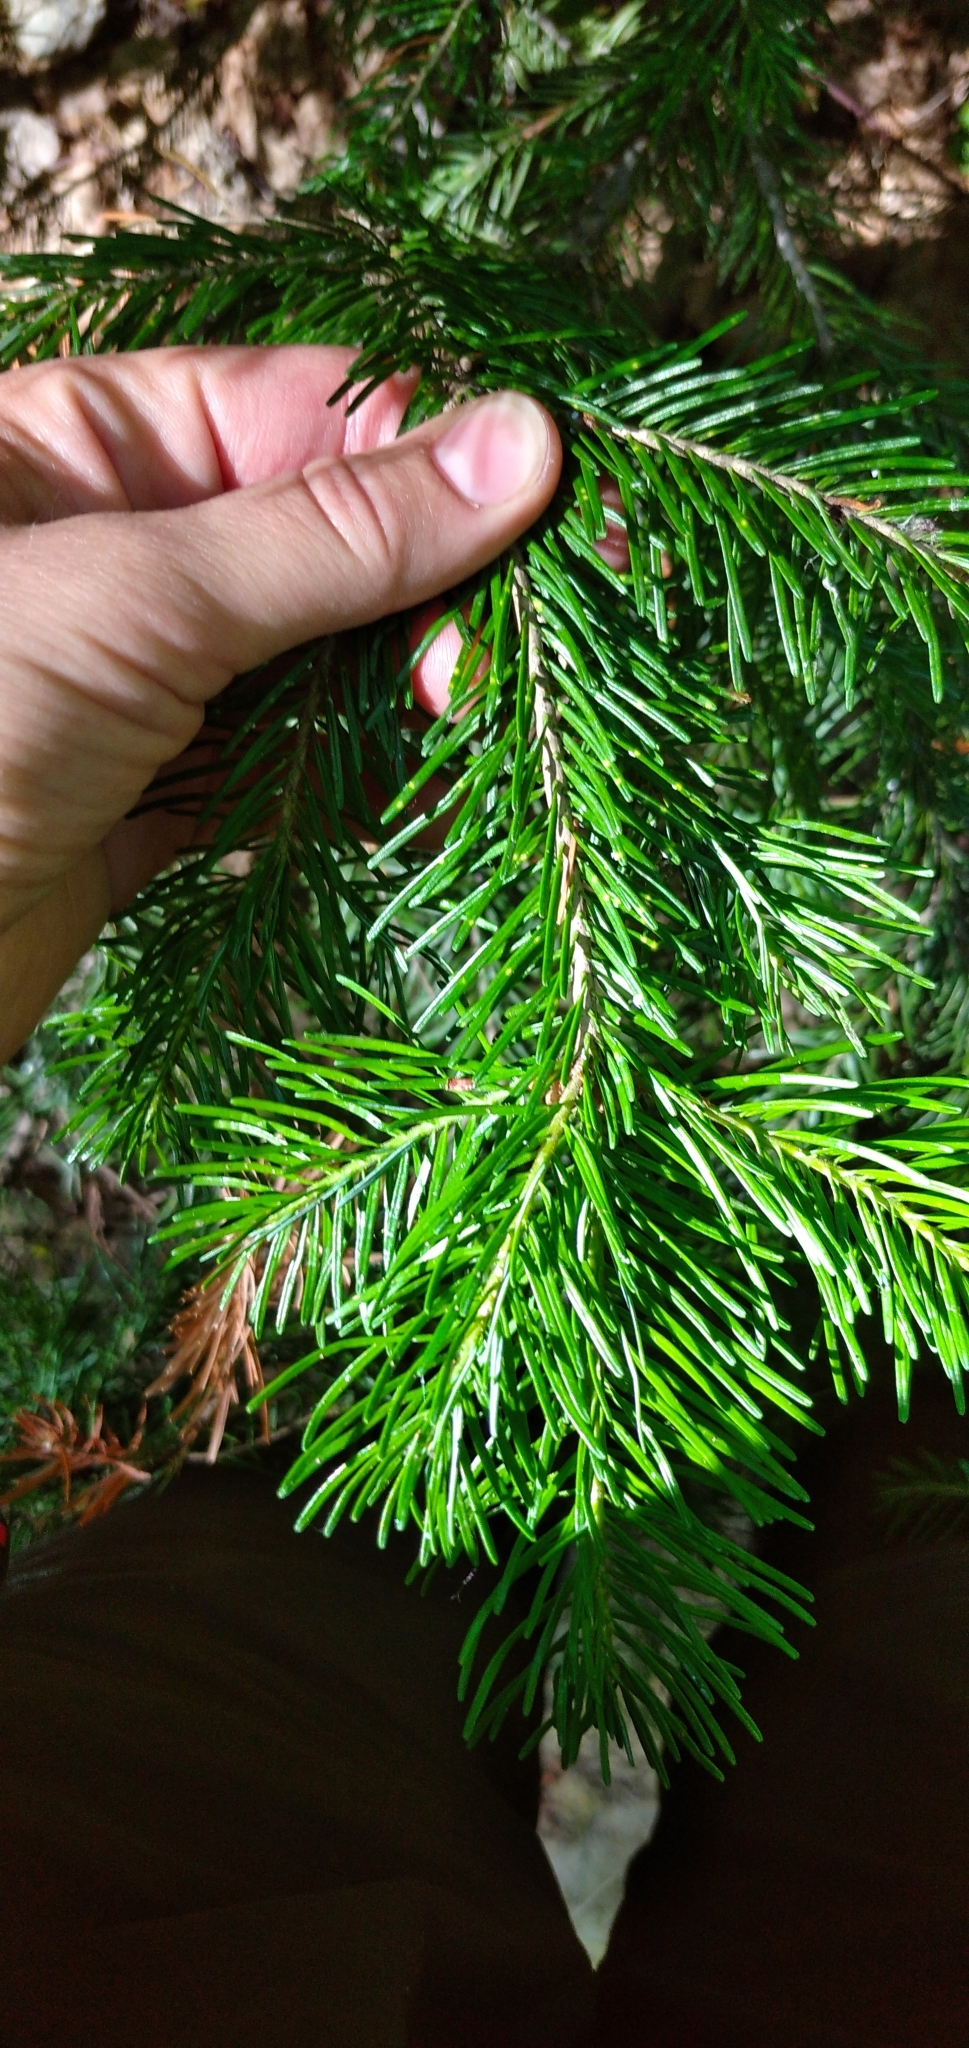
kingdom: Plantae
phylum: Tracheophyta
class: Pinopsida
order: Pinales
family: Pinaceae
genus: Abies
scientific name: Abies sibirica
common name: Siberian fir
